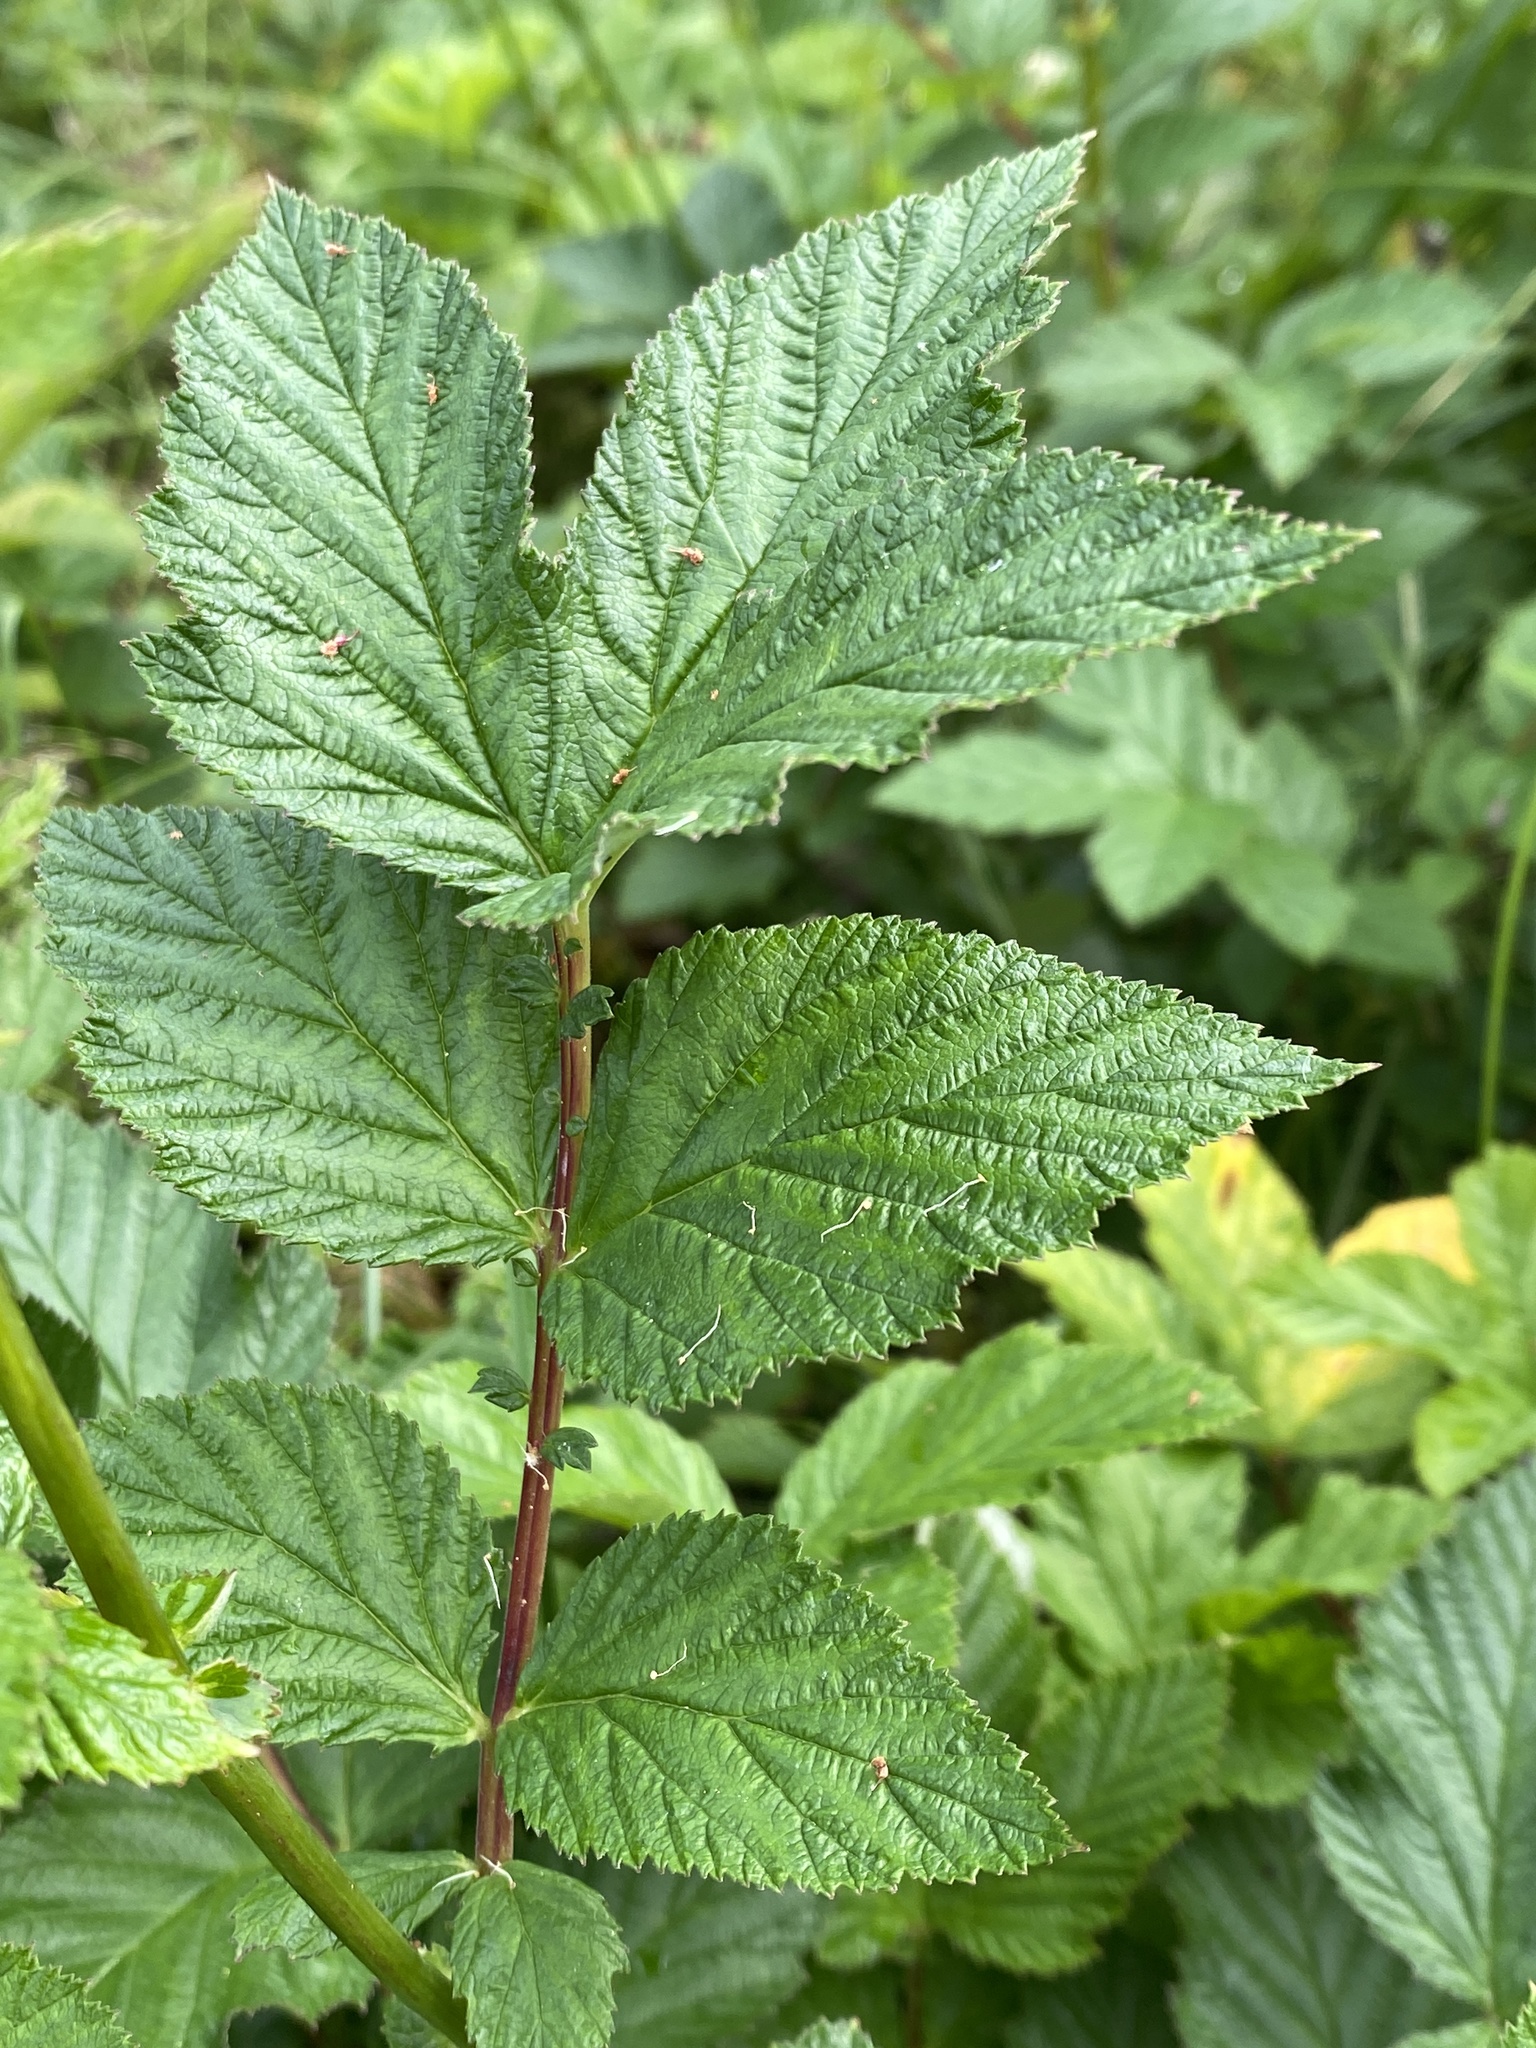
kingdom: Plantae
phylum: Tracheophyta
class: Magnoliopsida
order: Rosales
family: Rosaceae
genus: Filipendula
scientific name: Filipendula ulmaria
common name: Meadowsweet
